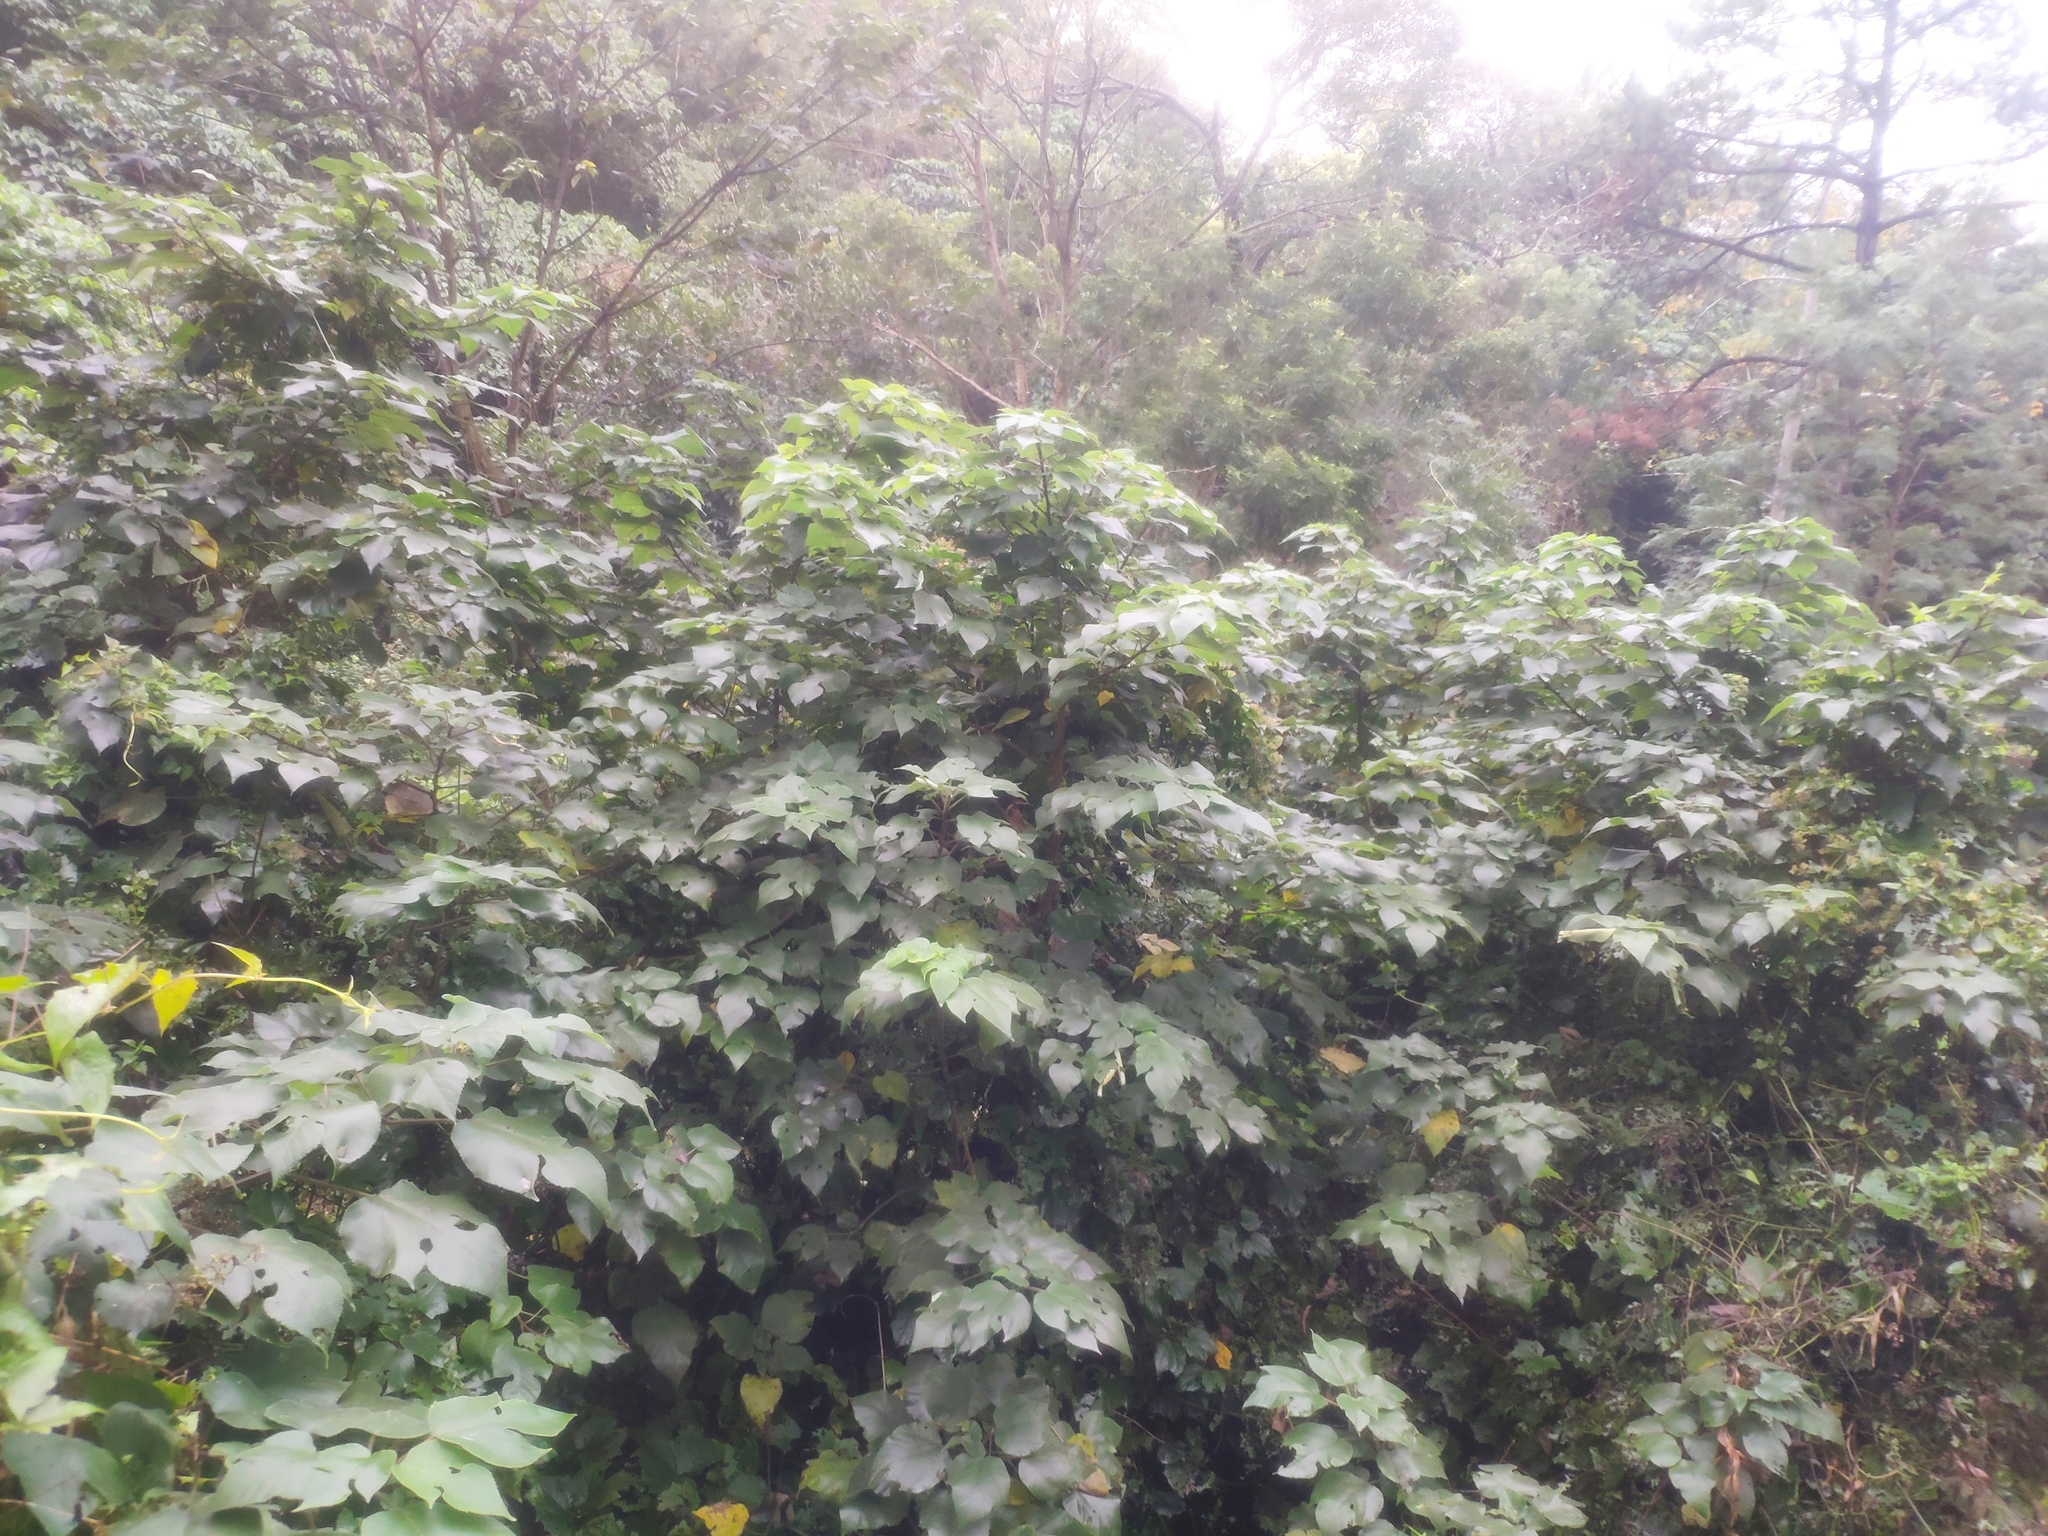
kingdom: Plantae
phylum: Tracheophyta
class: Magnoliopsida
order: Rosales
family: Moraceae
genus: Broussonetia
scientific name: Broussonetia papyrifera
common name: Paper mulberry
